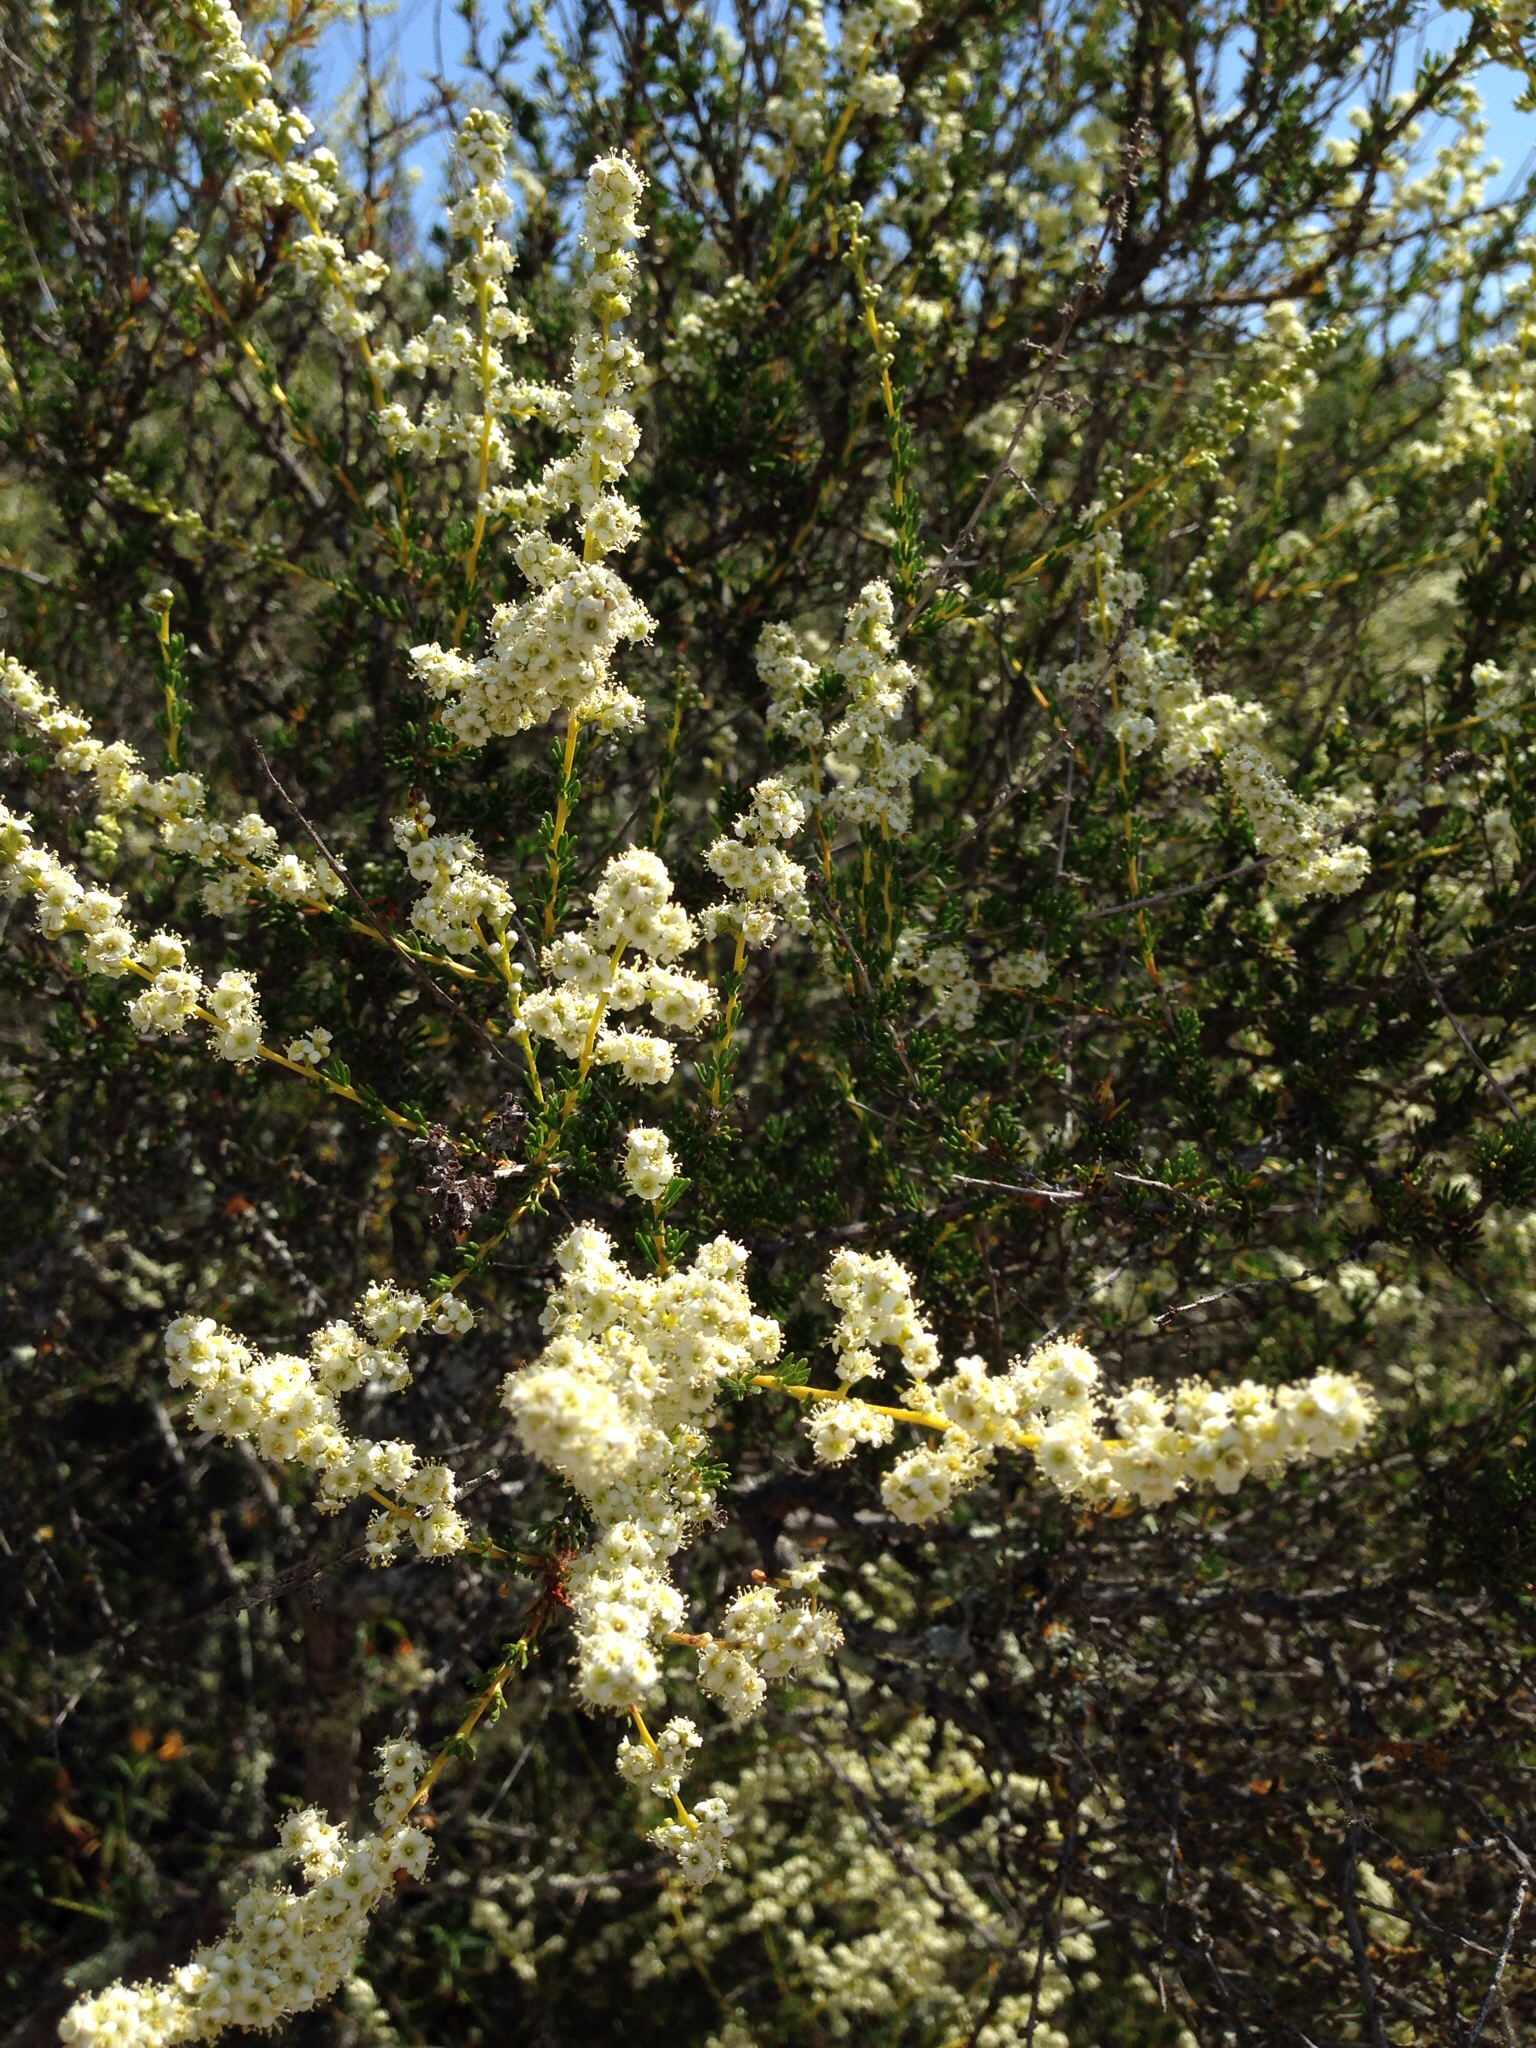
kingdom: Plantae
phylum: Tracheophyta
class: Magnoliopsida
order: Rosales
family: Rosaceae
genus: Adenostoma
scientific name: Adenostoma fasciculatum
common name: Chamise
